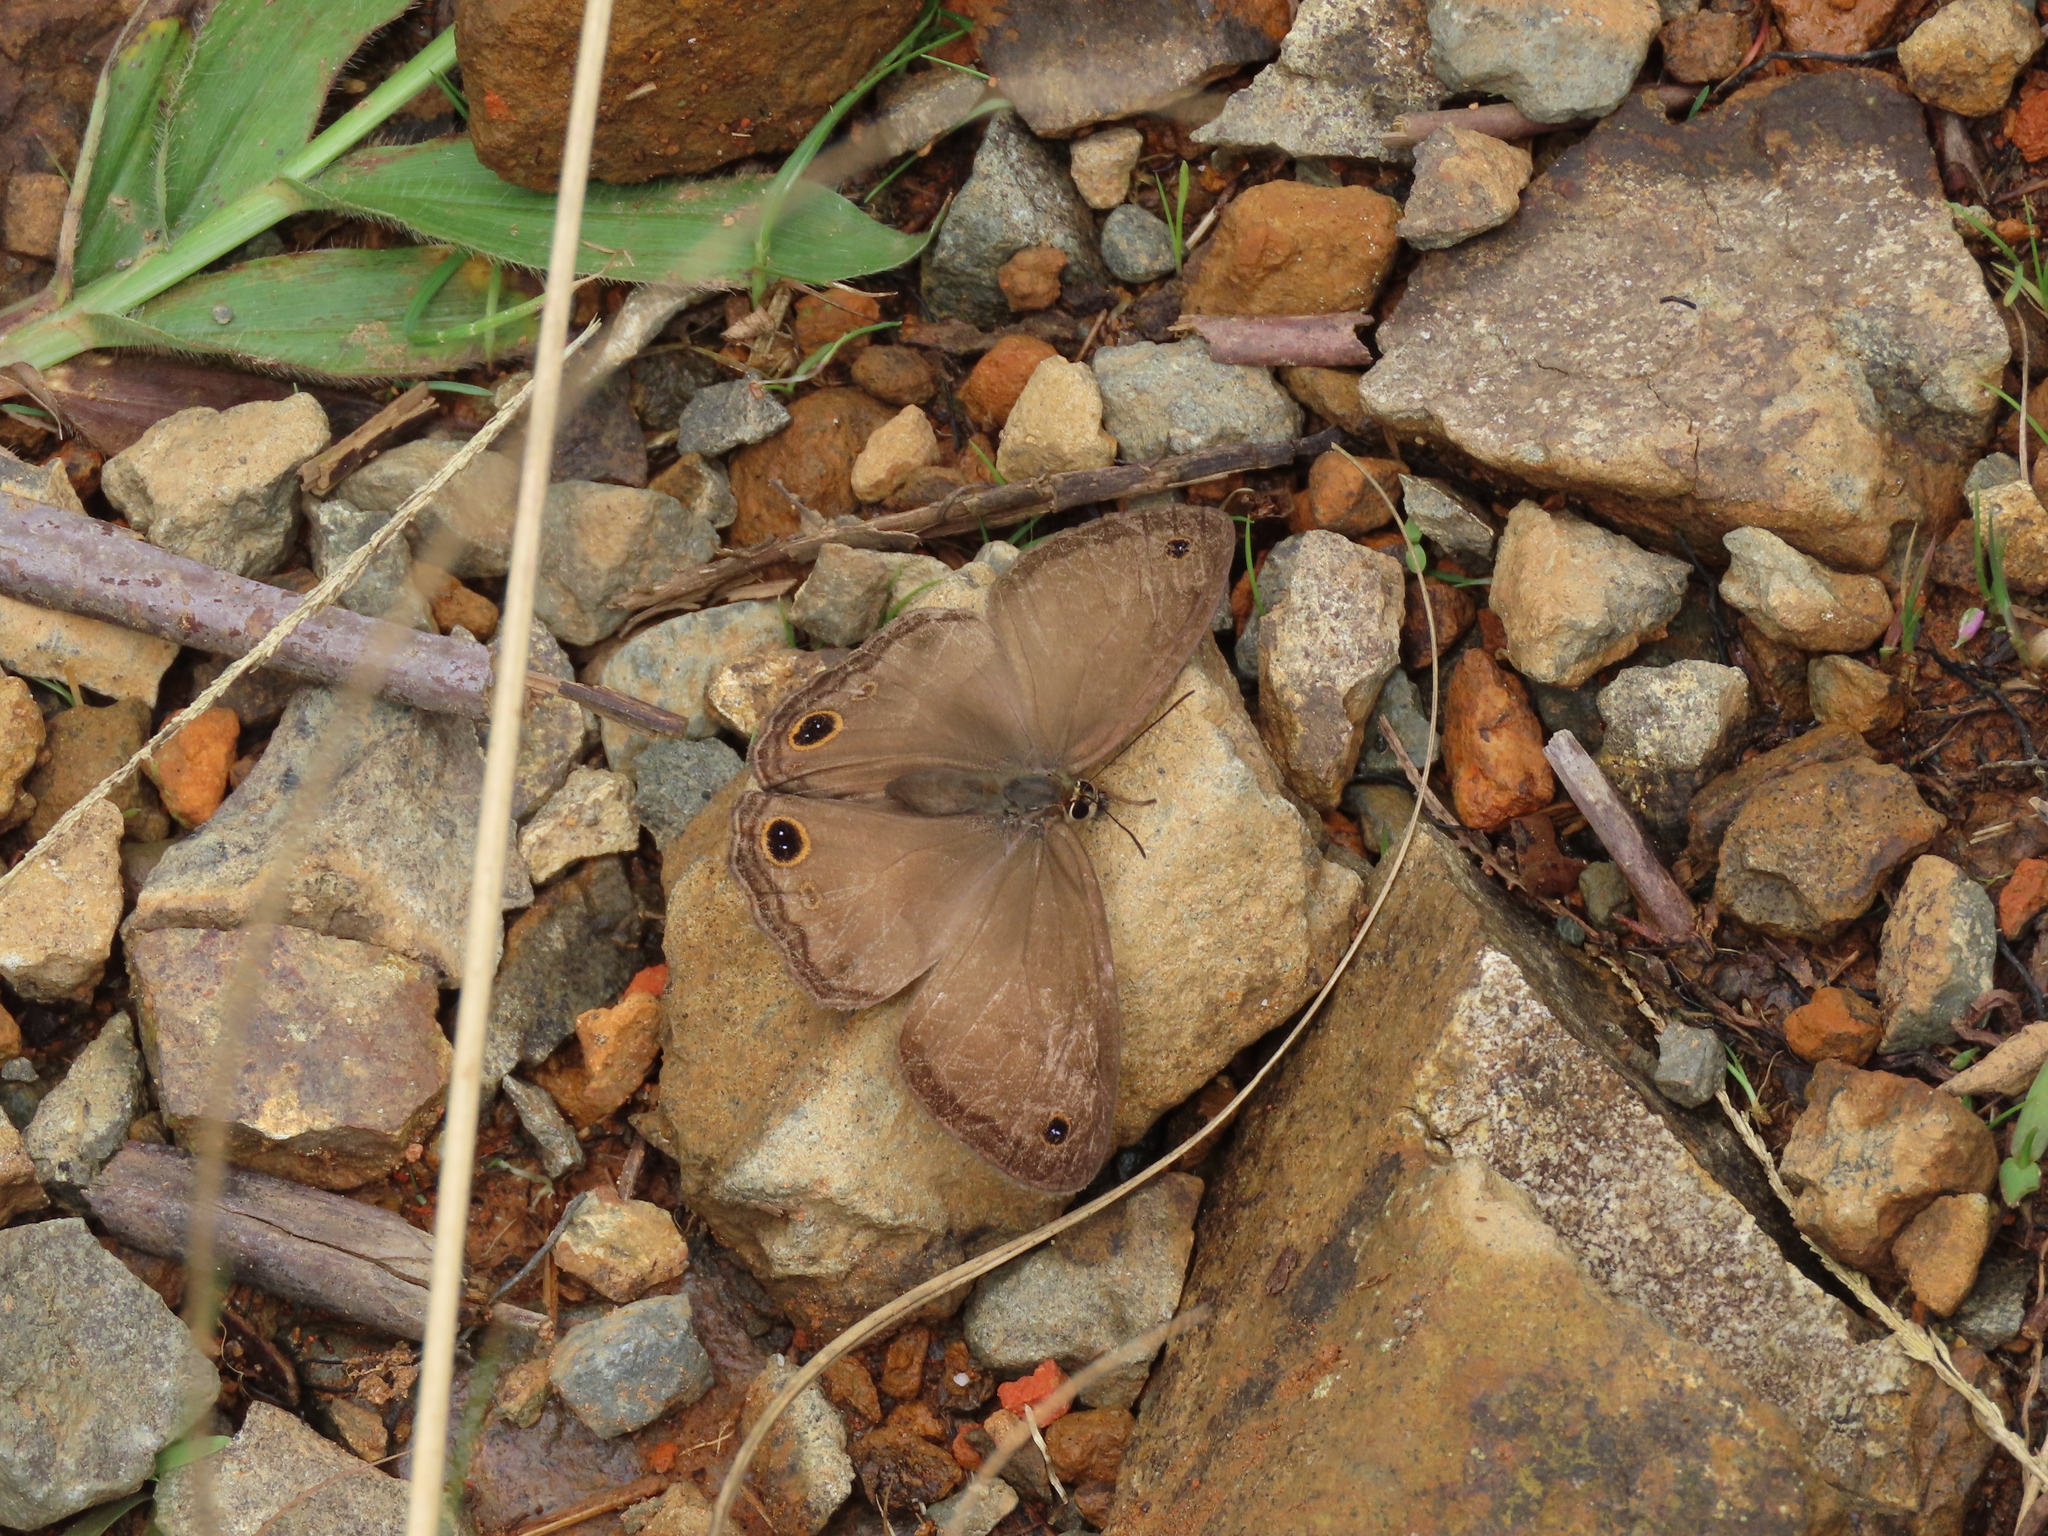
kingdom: Animalia
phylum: Arthropoda
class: Insecta
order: Lepidoptera
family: Nymphalidae
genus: Graphita
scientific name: Graphita griphe
